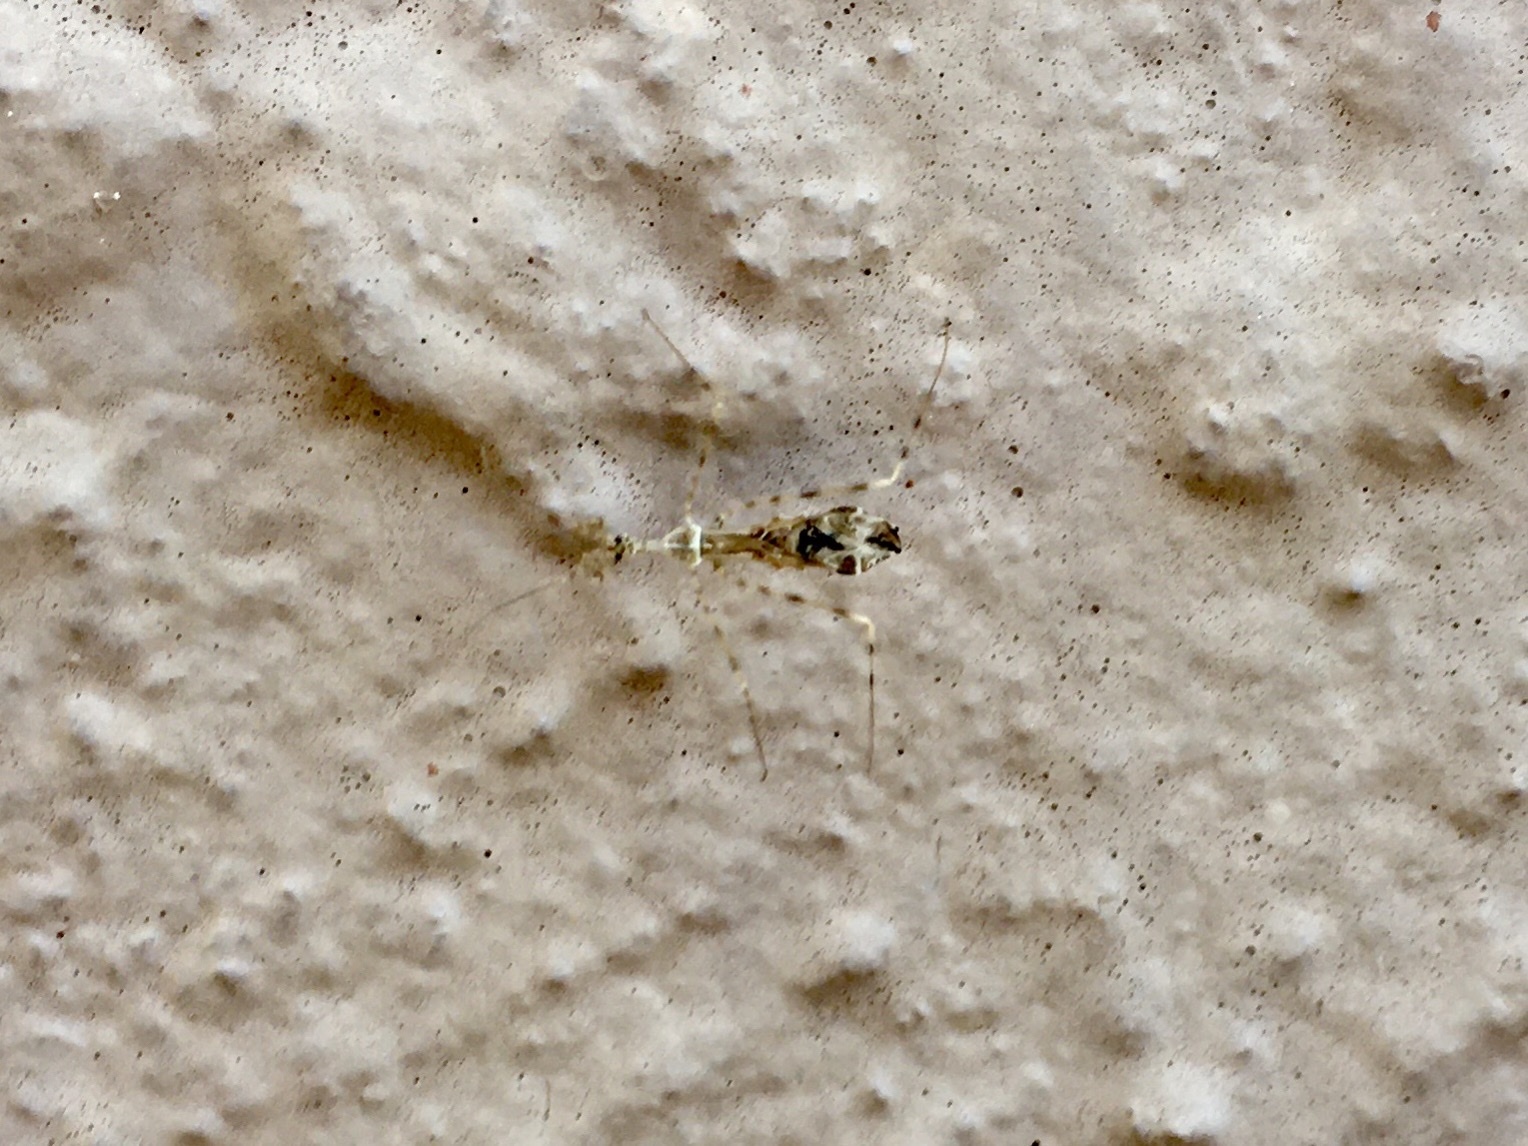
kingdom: Animalia
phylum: Arthropoda
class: Insecta
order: Hemiptera
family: Reduviidae
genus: Stenolemus
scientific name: Stenolemus fraterculus
